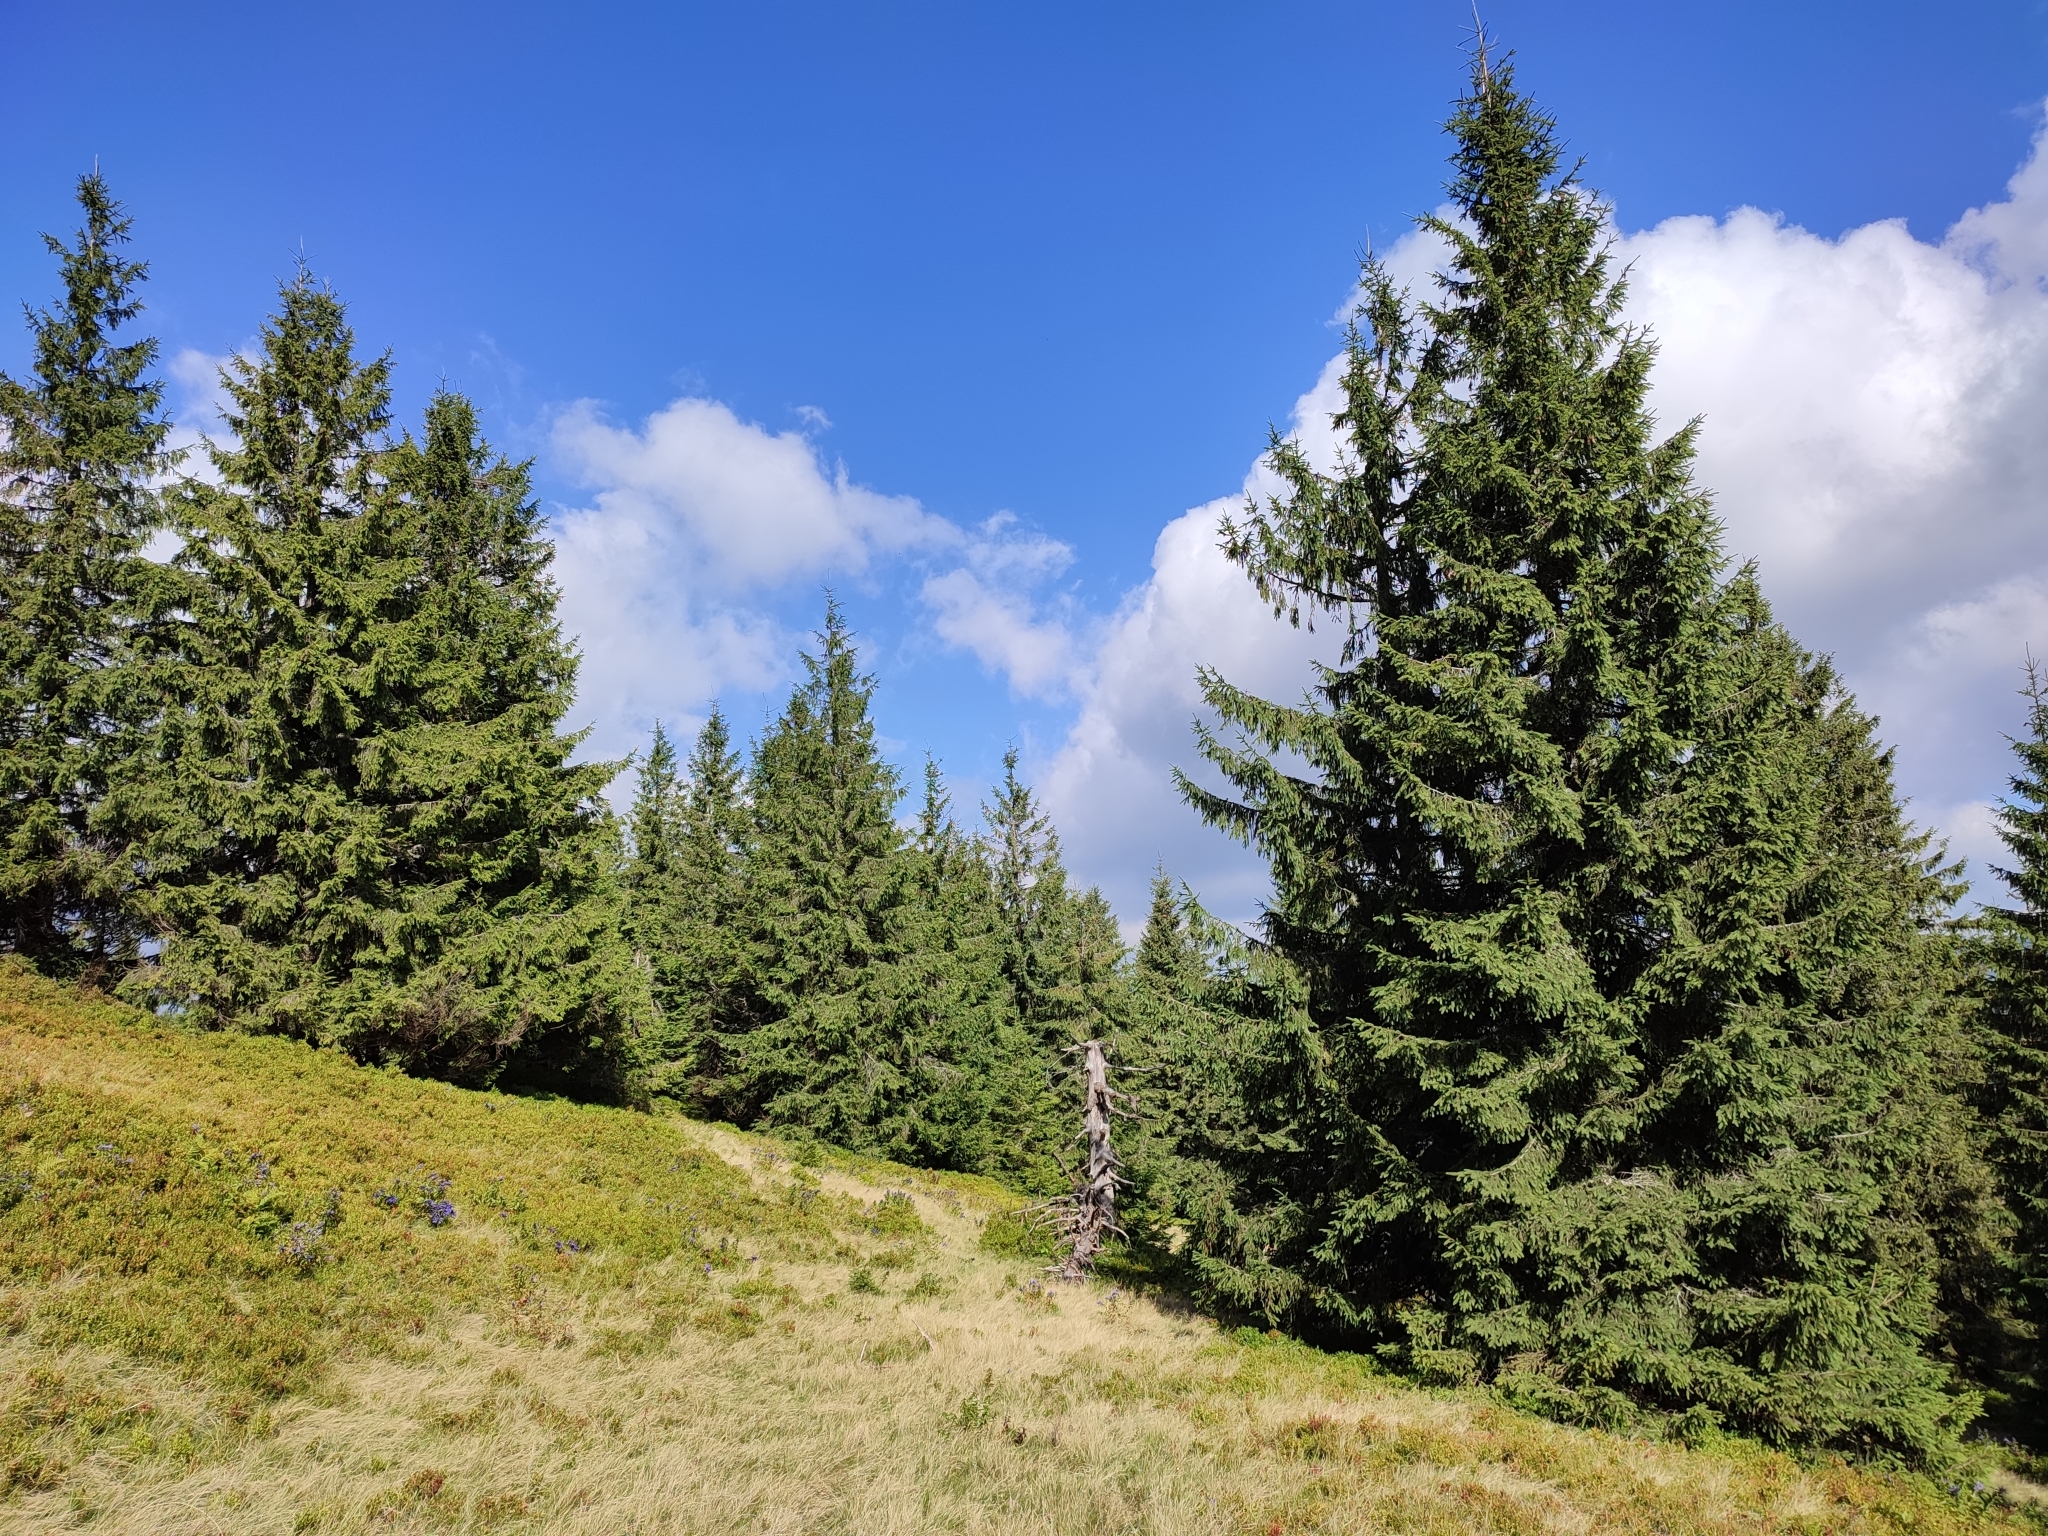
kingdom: Plantae
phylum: Tracheophyta
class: Pinopsida
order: Pinales
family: Pinaceae
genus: Picea
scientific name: Picea abies
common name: Norway spruce
